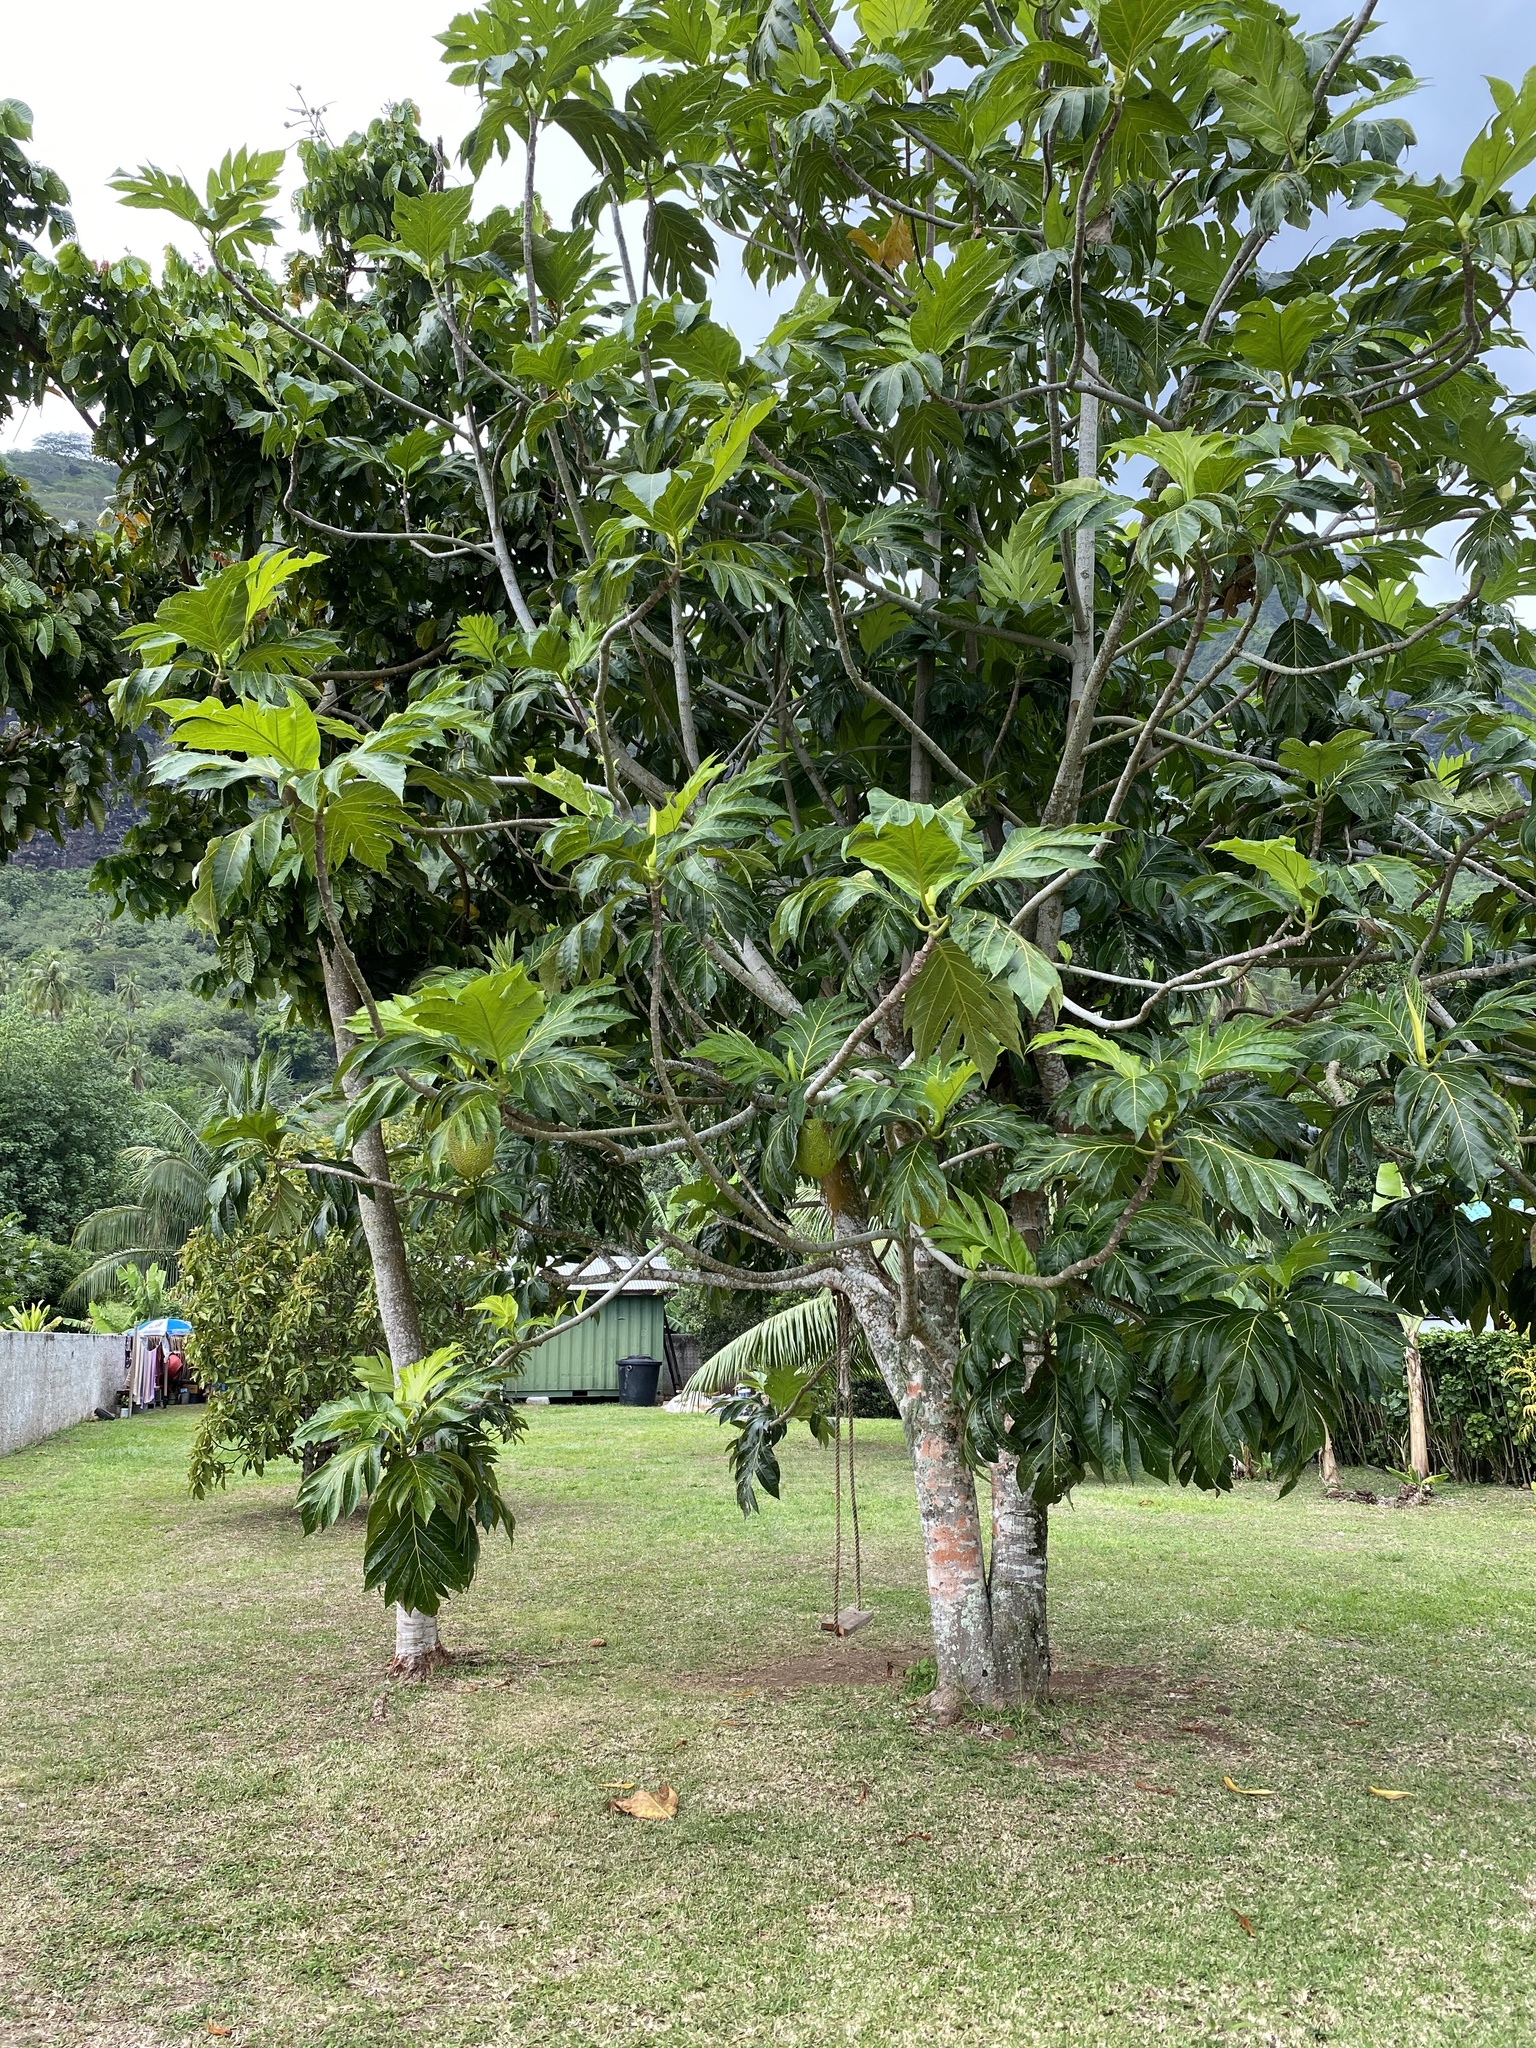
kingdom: Plantae
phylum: Tracheophyta
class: Magnoliopsida
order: Rosales
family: Moraceae
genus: Artocarpus
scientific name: Artocarpus altilis
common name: Breadfruit
